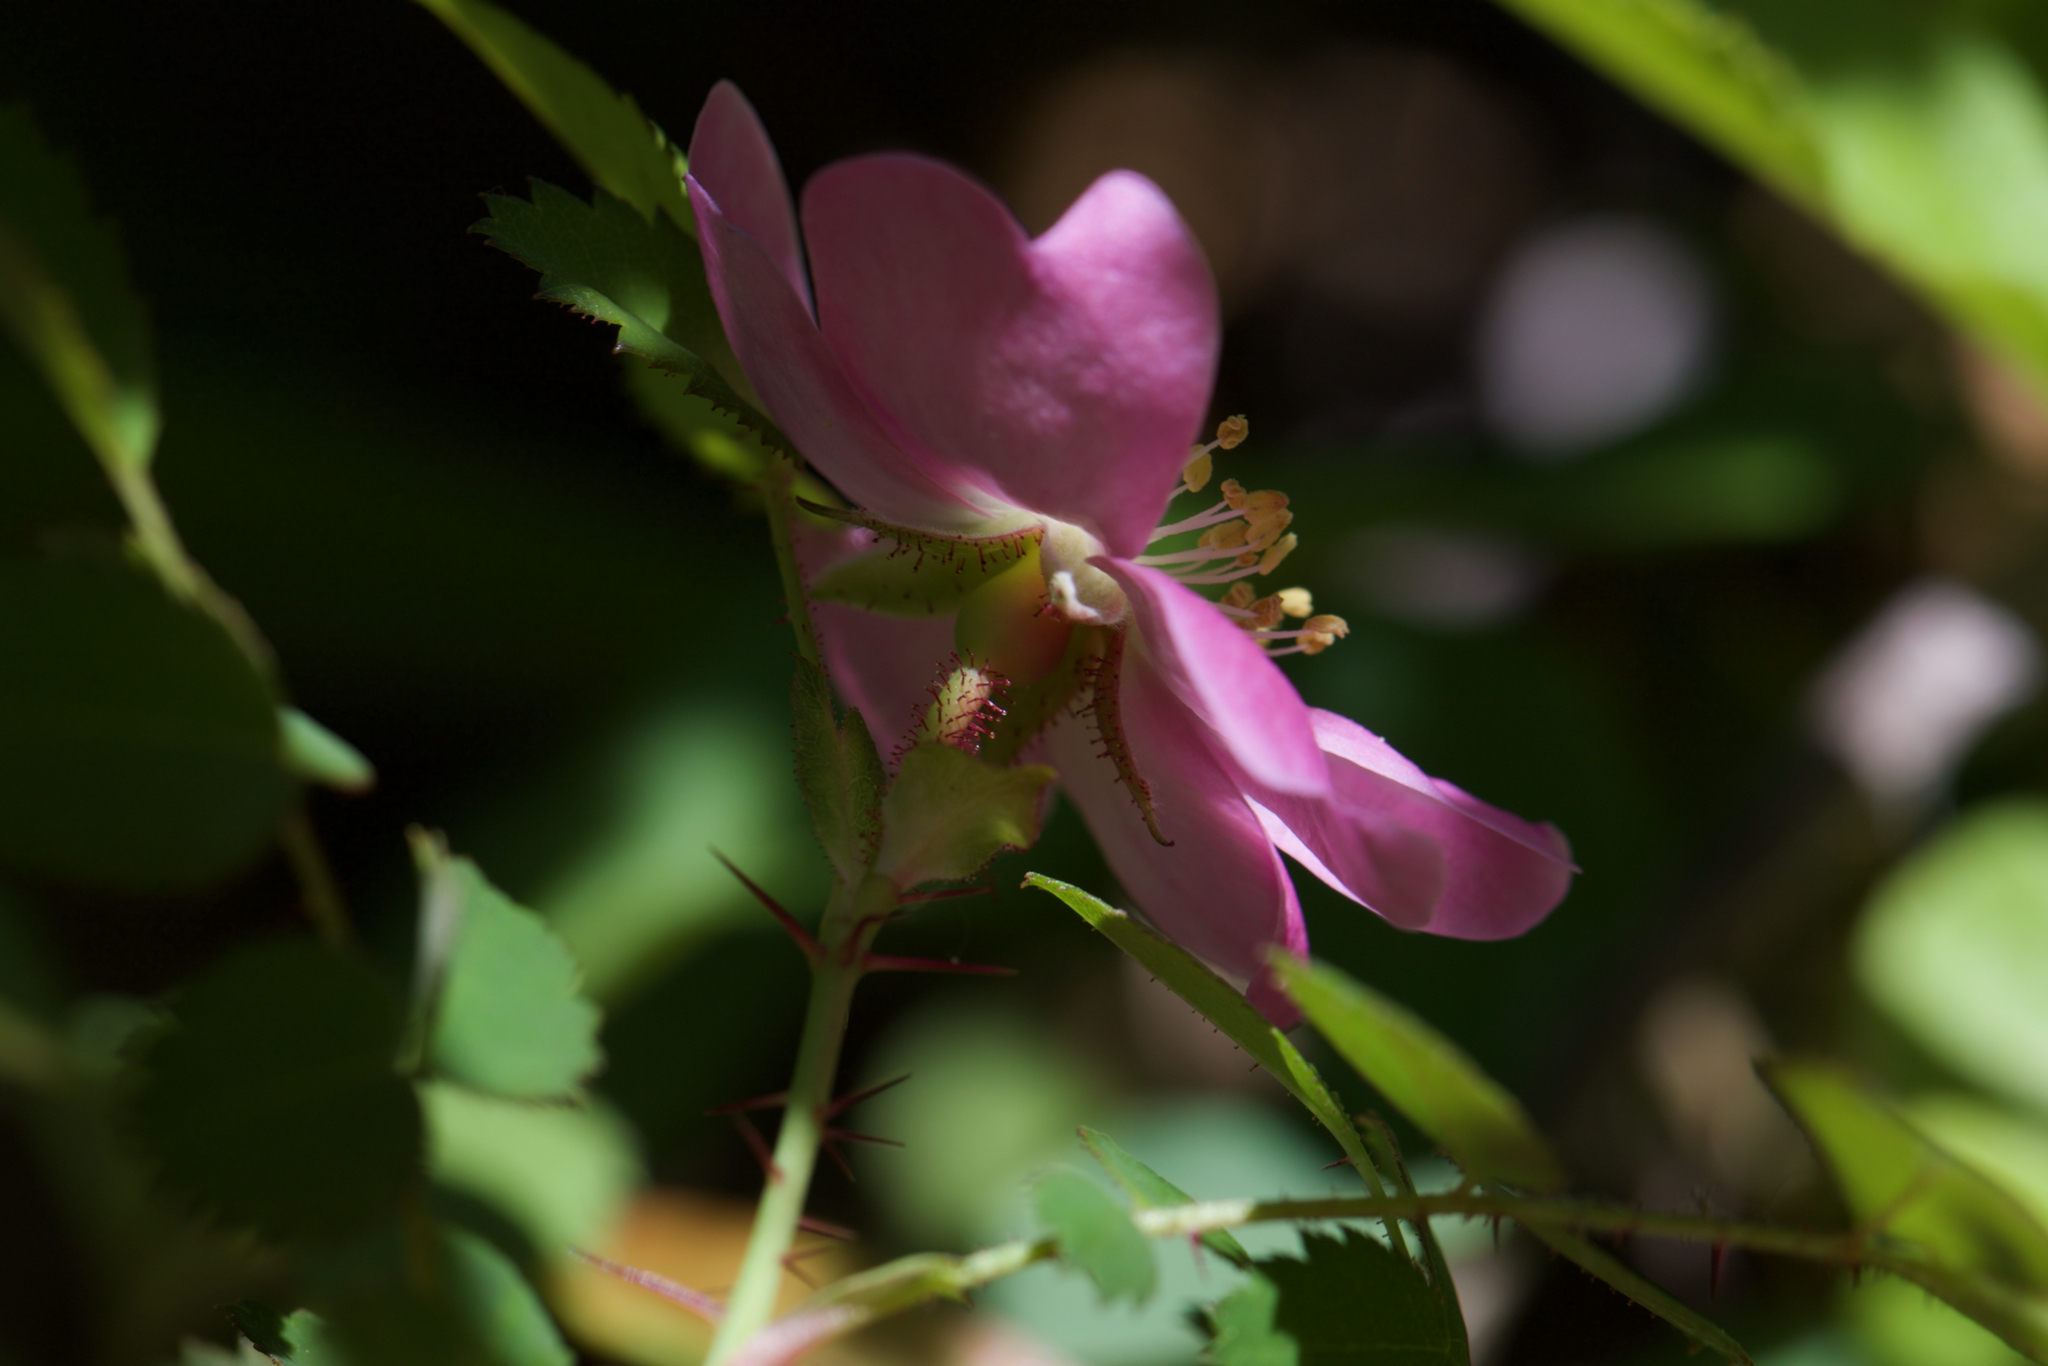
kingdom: Plantae
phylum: Tracheophyta
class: Magnoliopsida
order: Rosales
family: Rosaceae
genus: Rosa
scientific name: Rosa gymnocarpa
